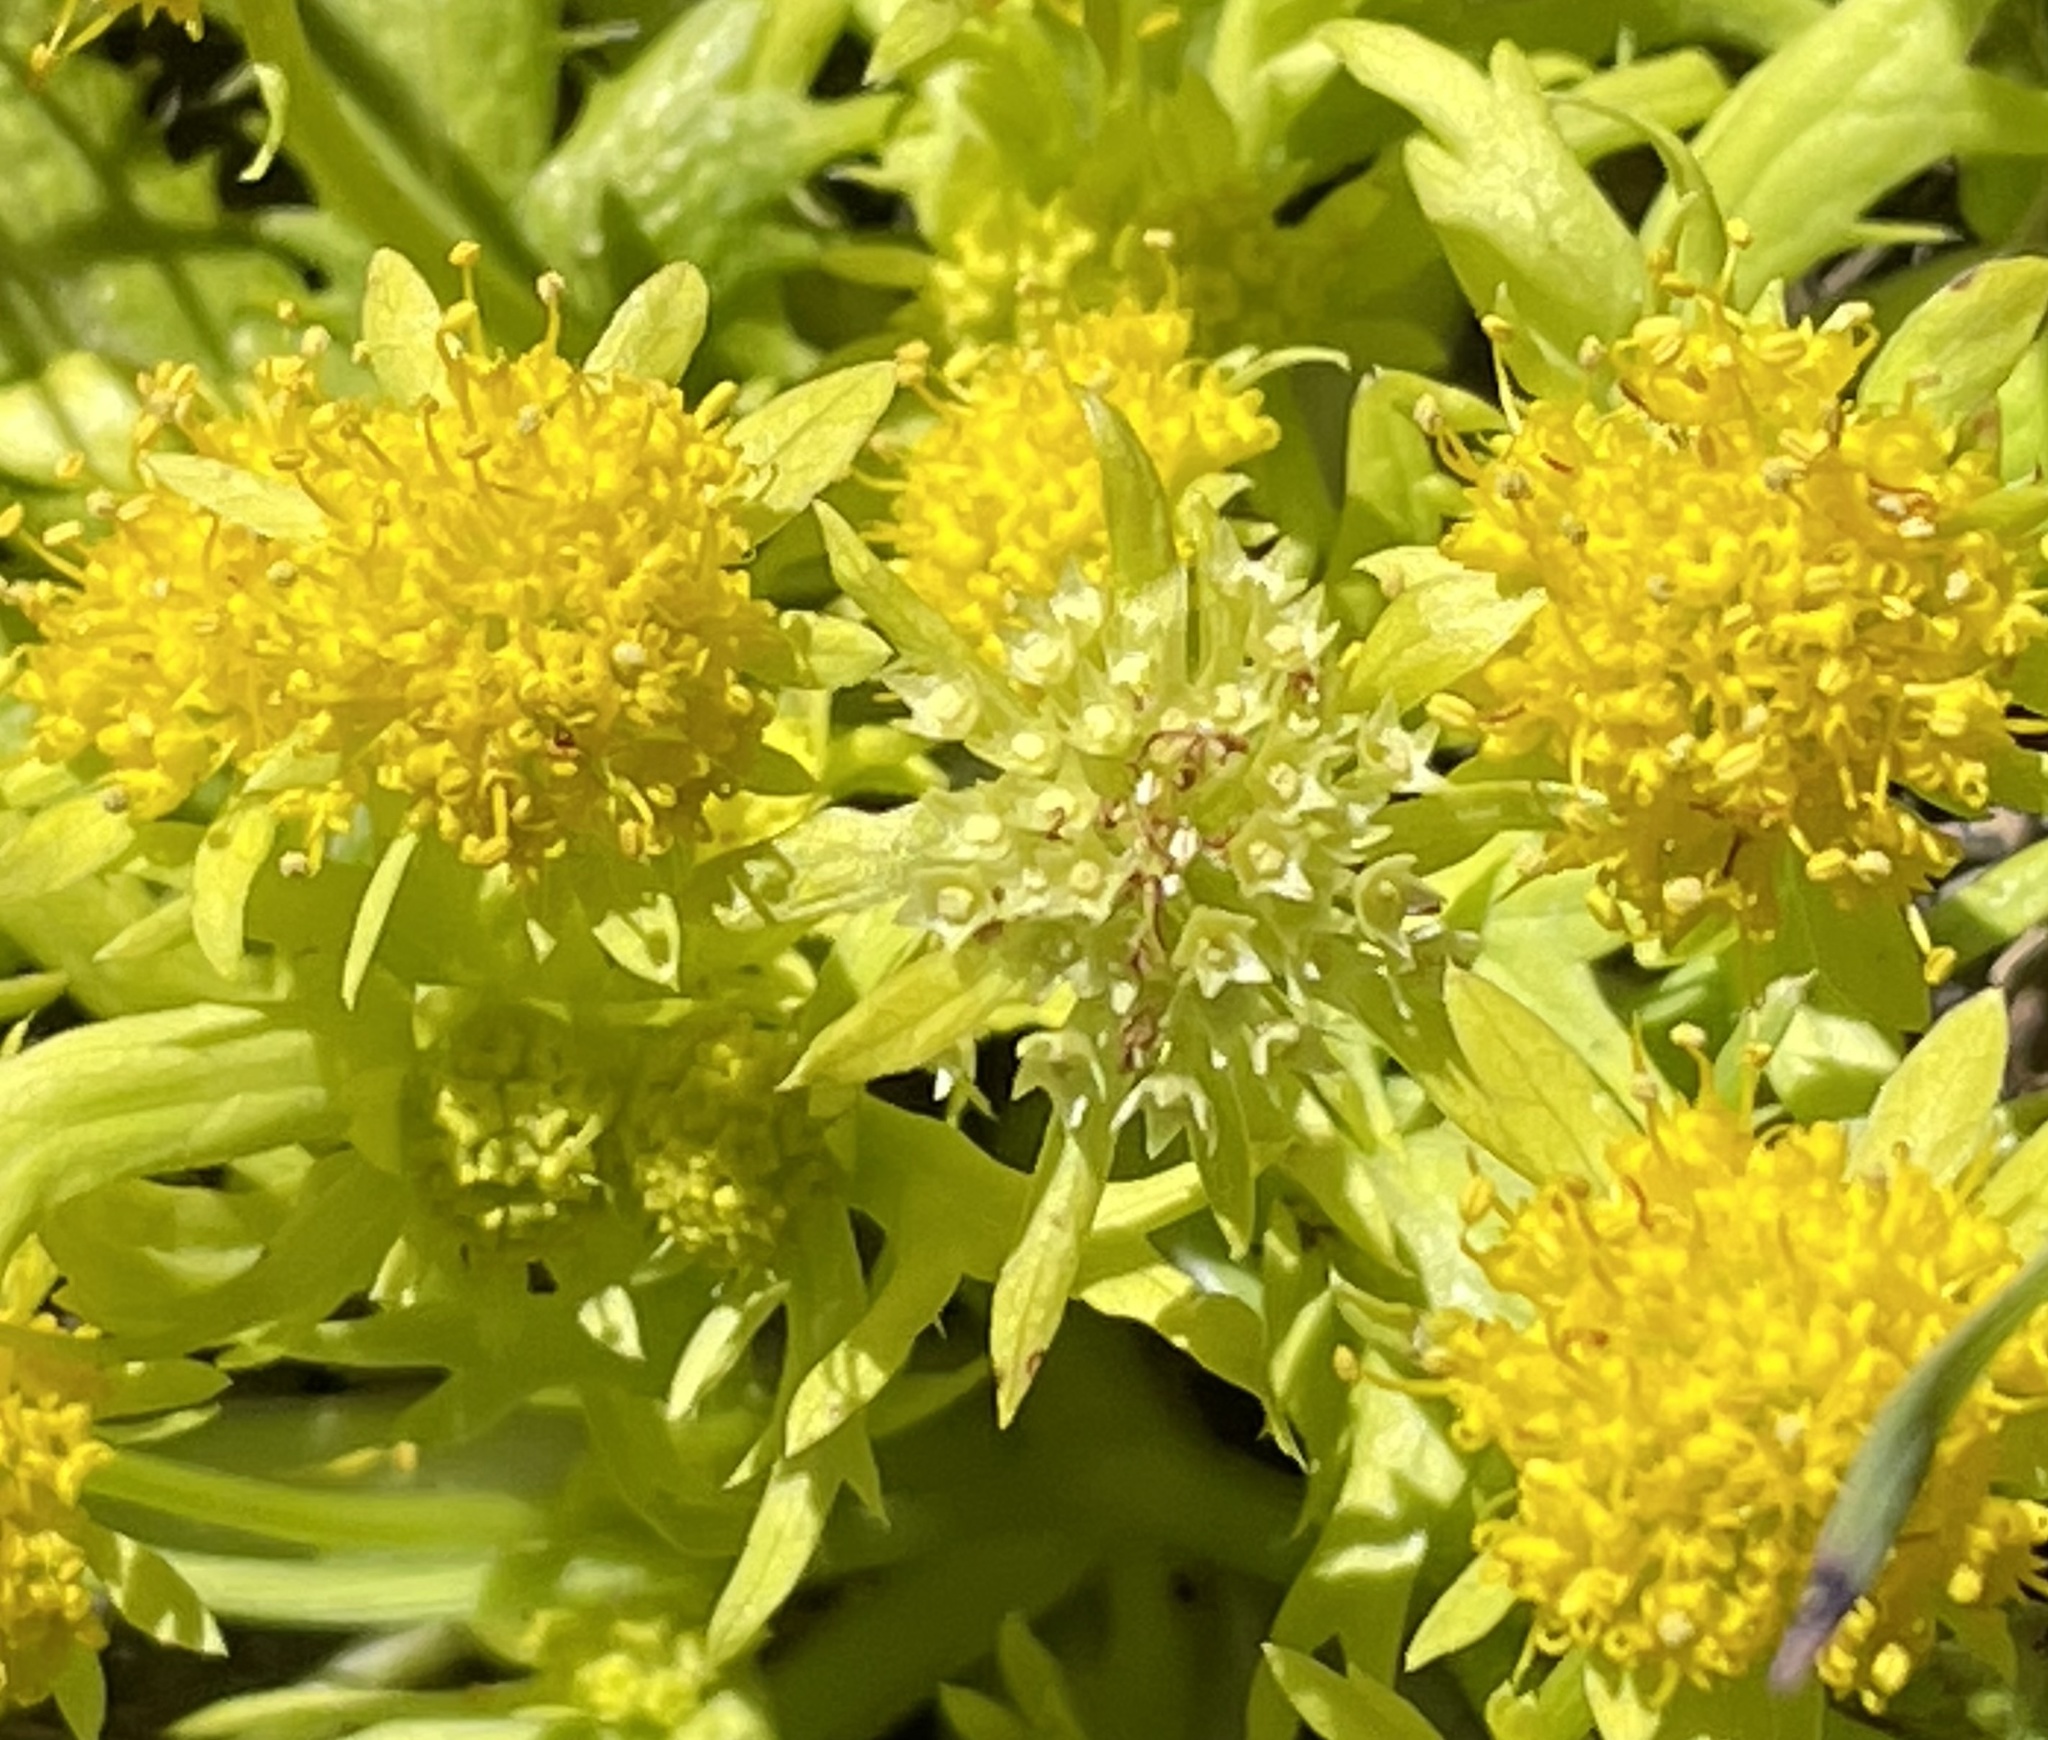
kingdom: Plantae
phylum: Tracheophyta
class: Magnoliopsida
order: Apiales
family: Apiaceae
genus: Sanicula
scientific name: Sanicula arctopoides
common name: Footsteps-of-spring
